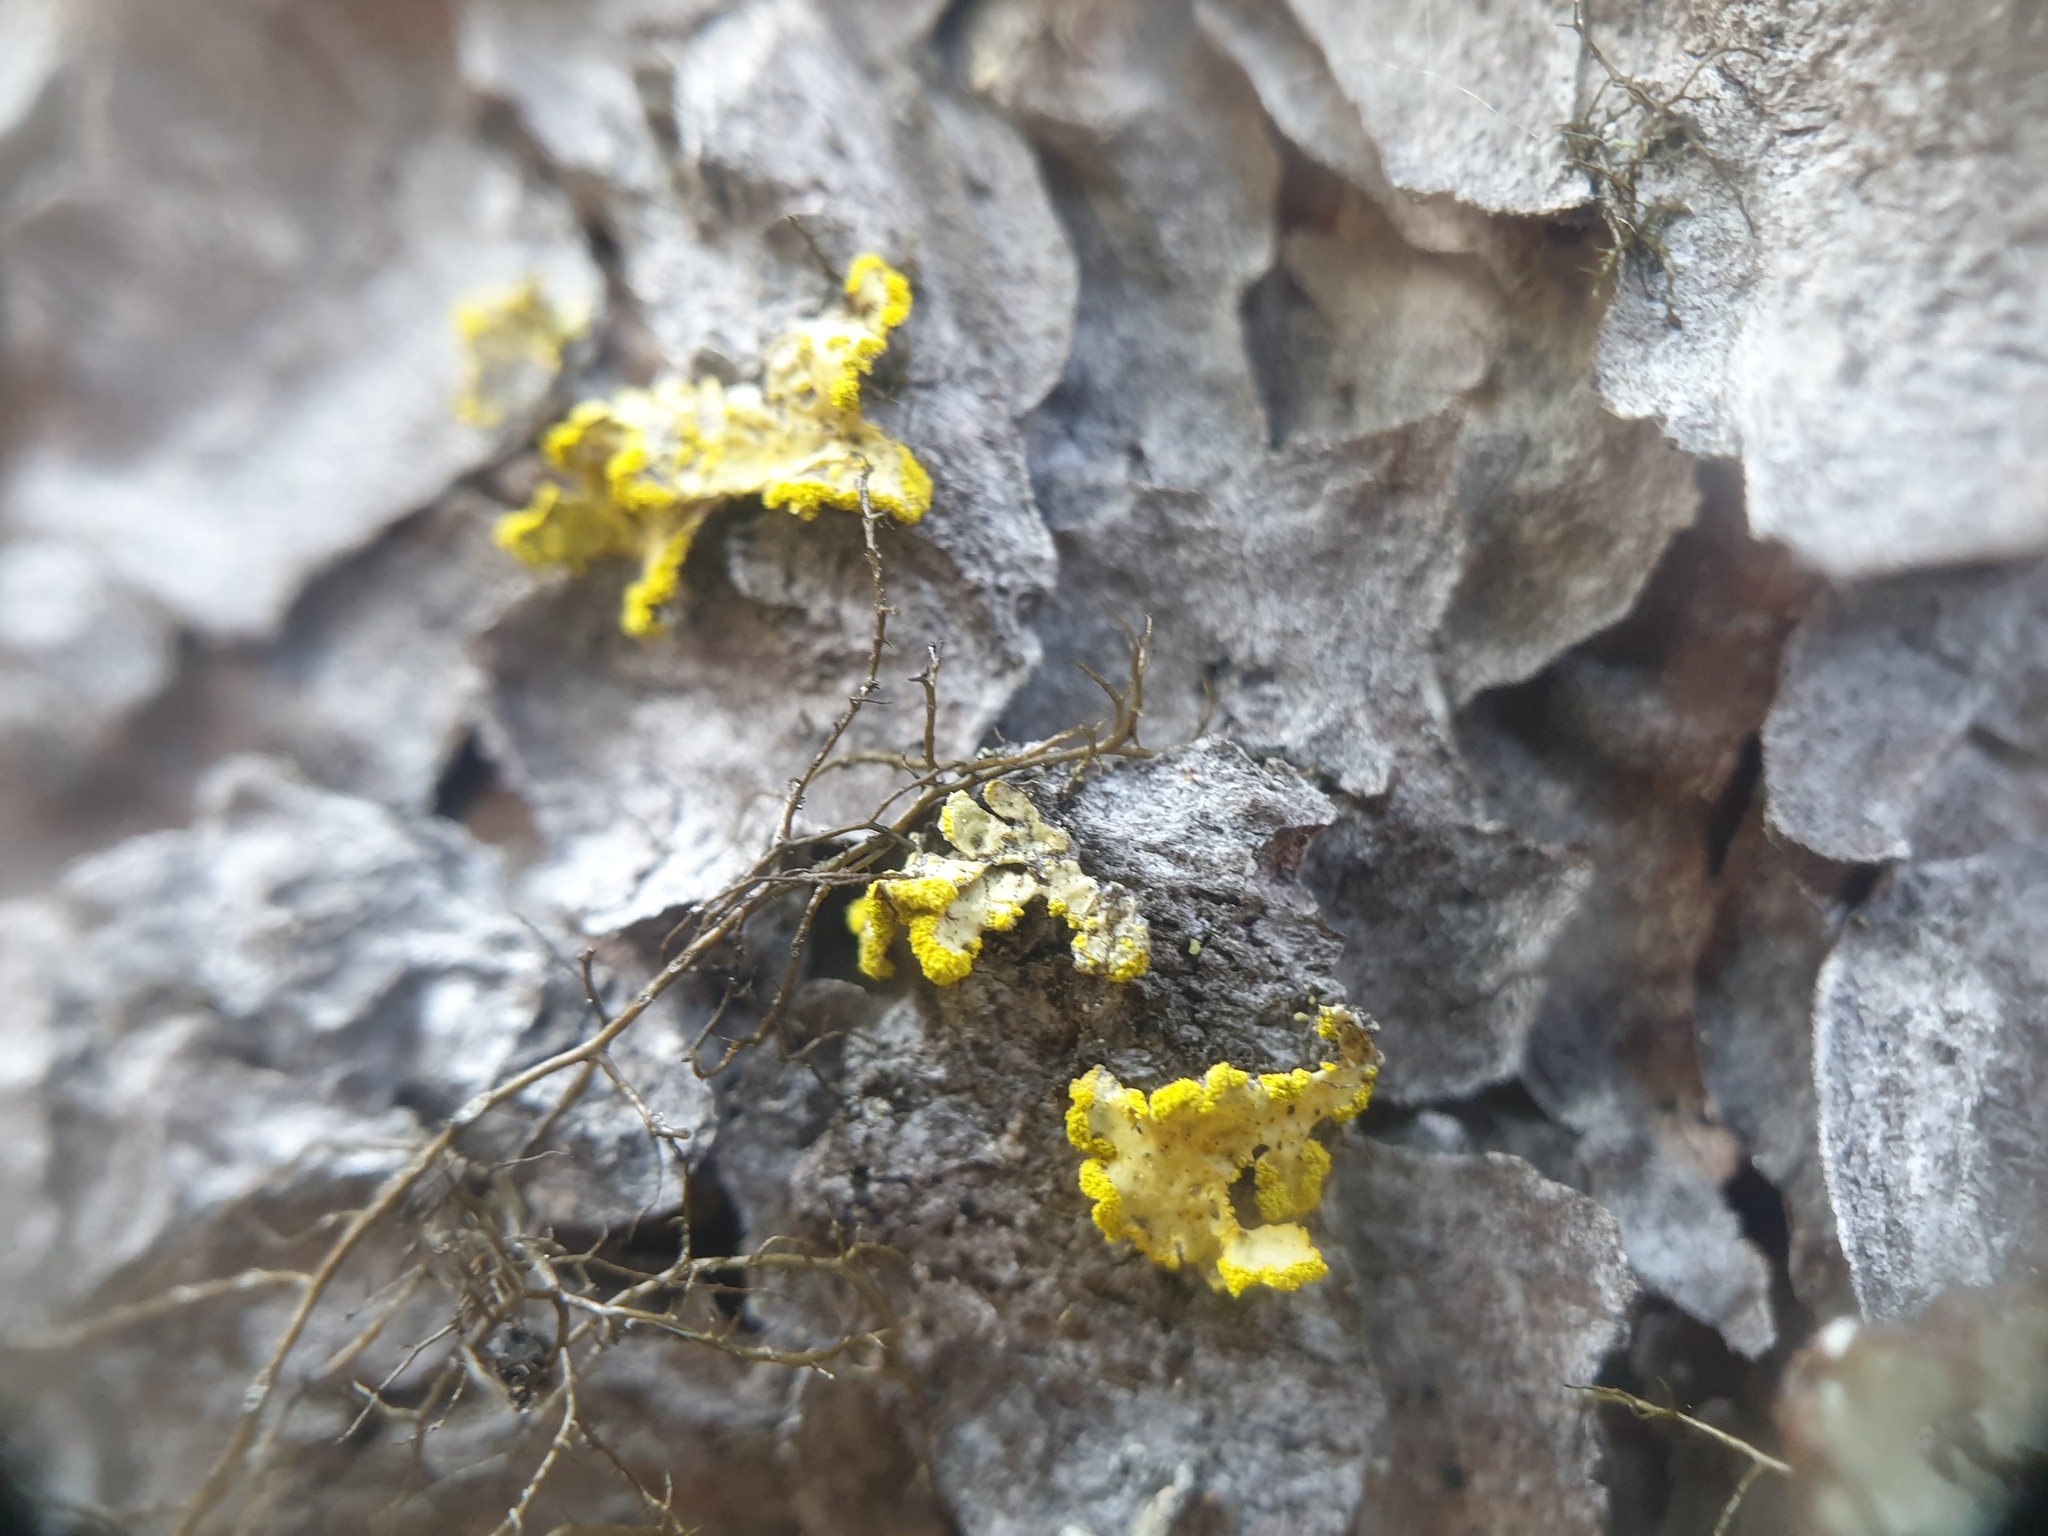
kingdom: Fungi
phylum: Ascomycota
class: Lecanoromycetes
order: Lecanorales
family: Parmeliaceae
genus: Vulpicida
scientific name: Vulpicida pinastri
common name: Powdered sunshine lichen
